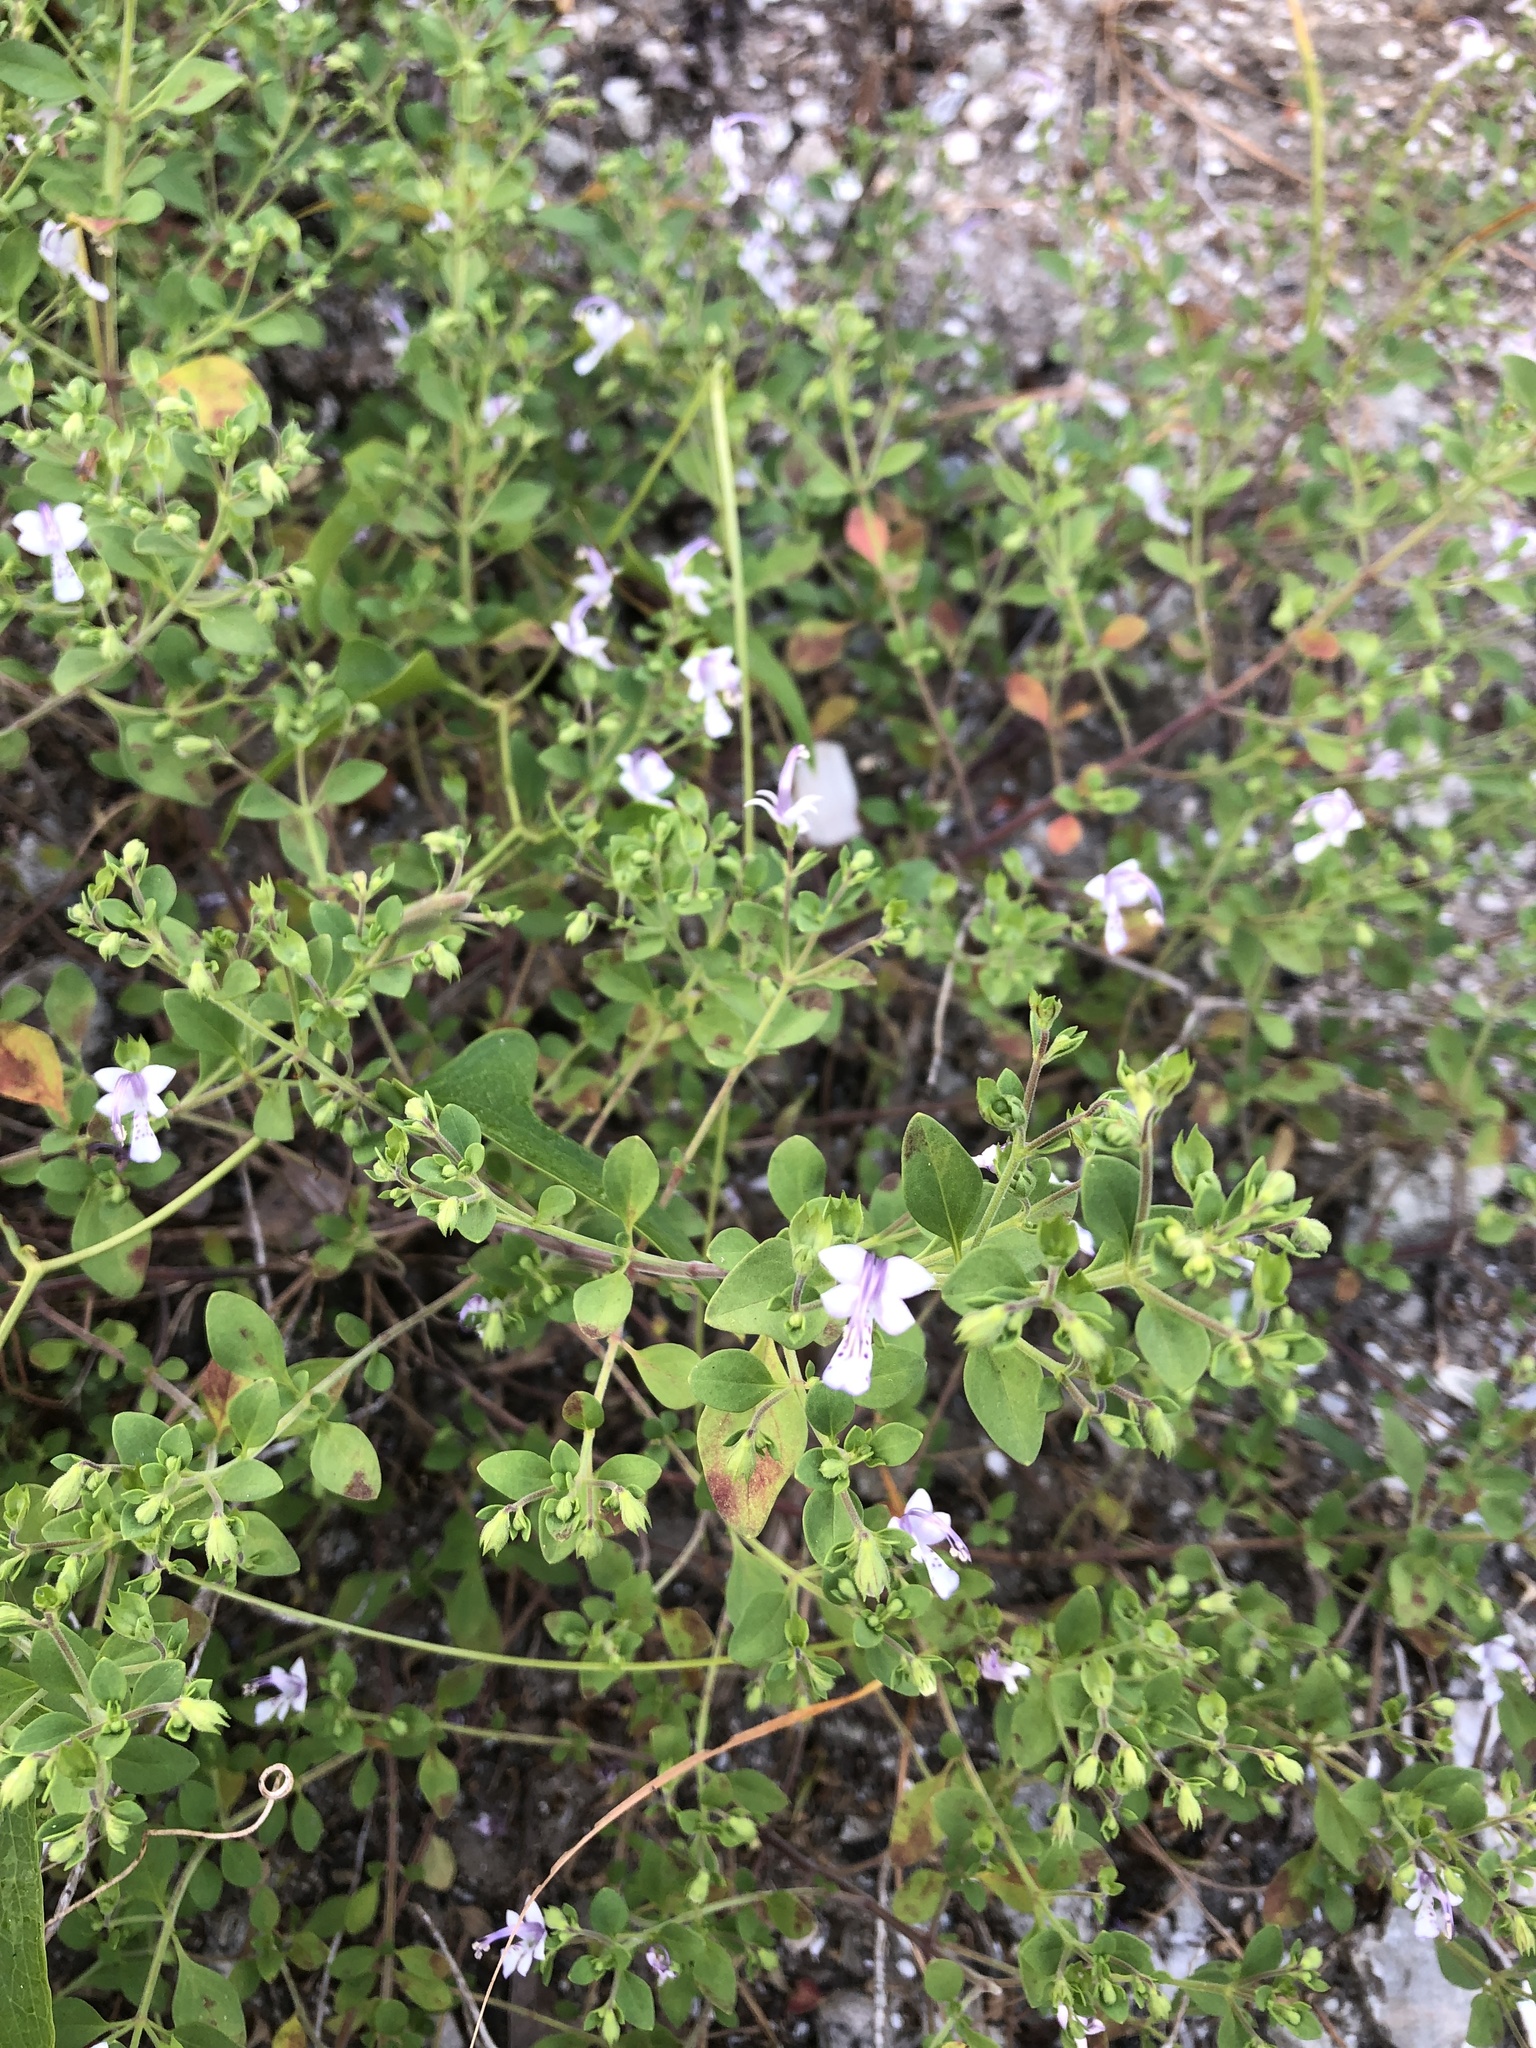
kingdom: Plantae
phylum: Tracheophyta
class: Magnoliopsida
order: Lamiales
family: Lamiaceae
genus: Trichostema
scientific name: Trichostema nesophilum
